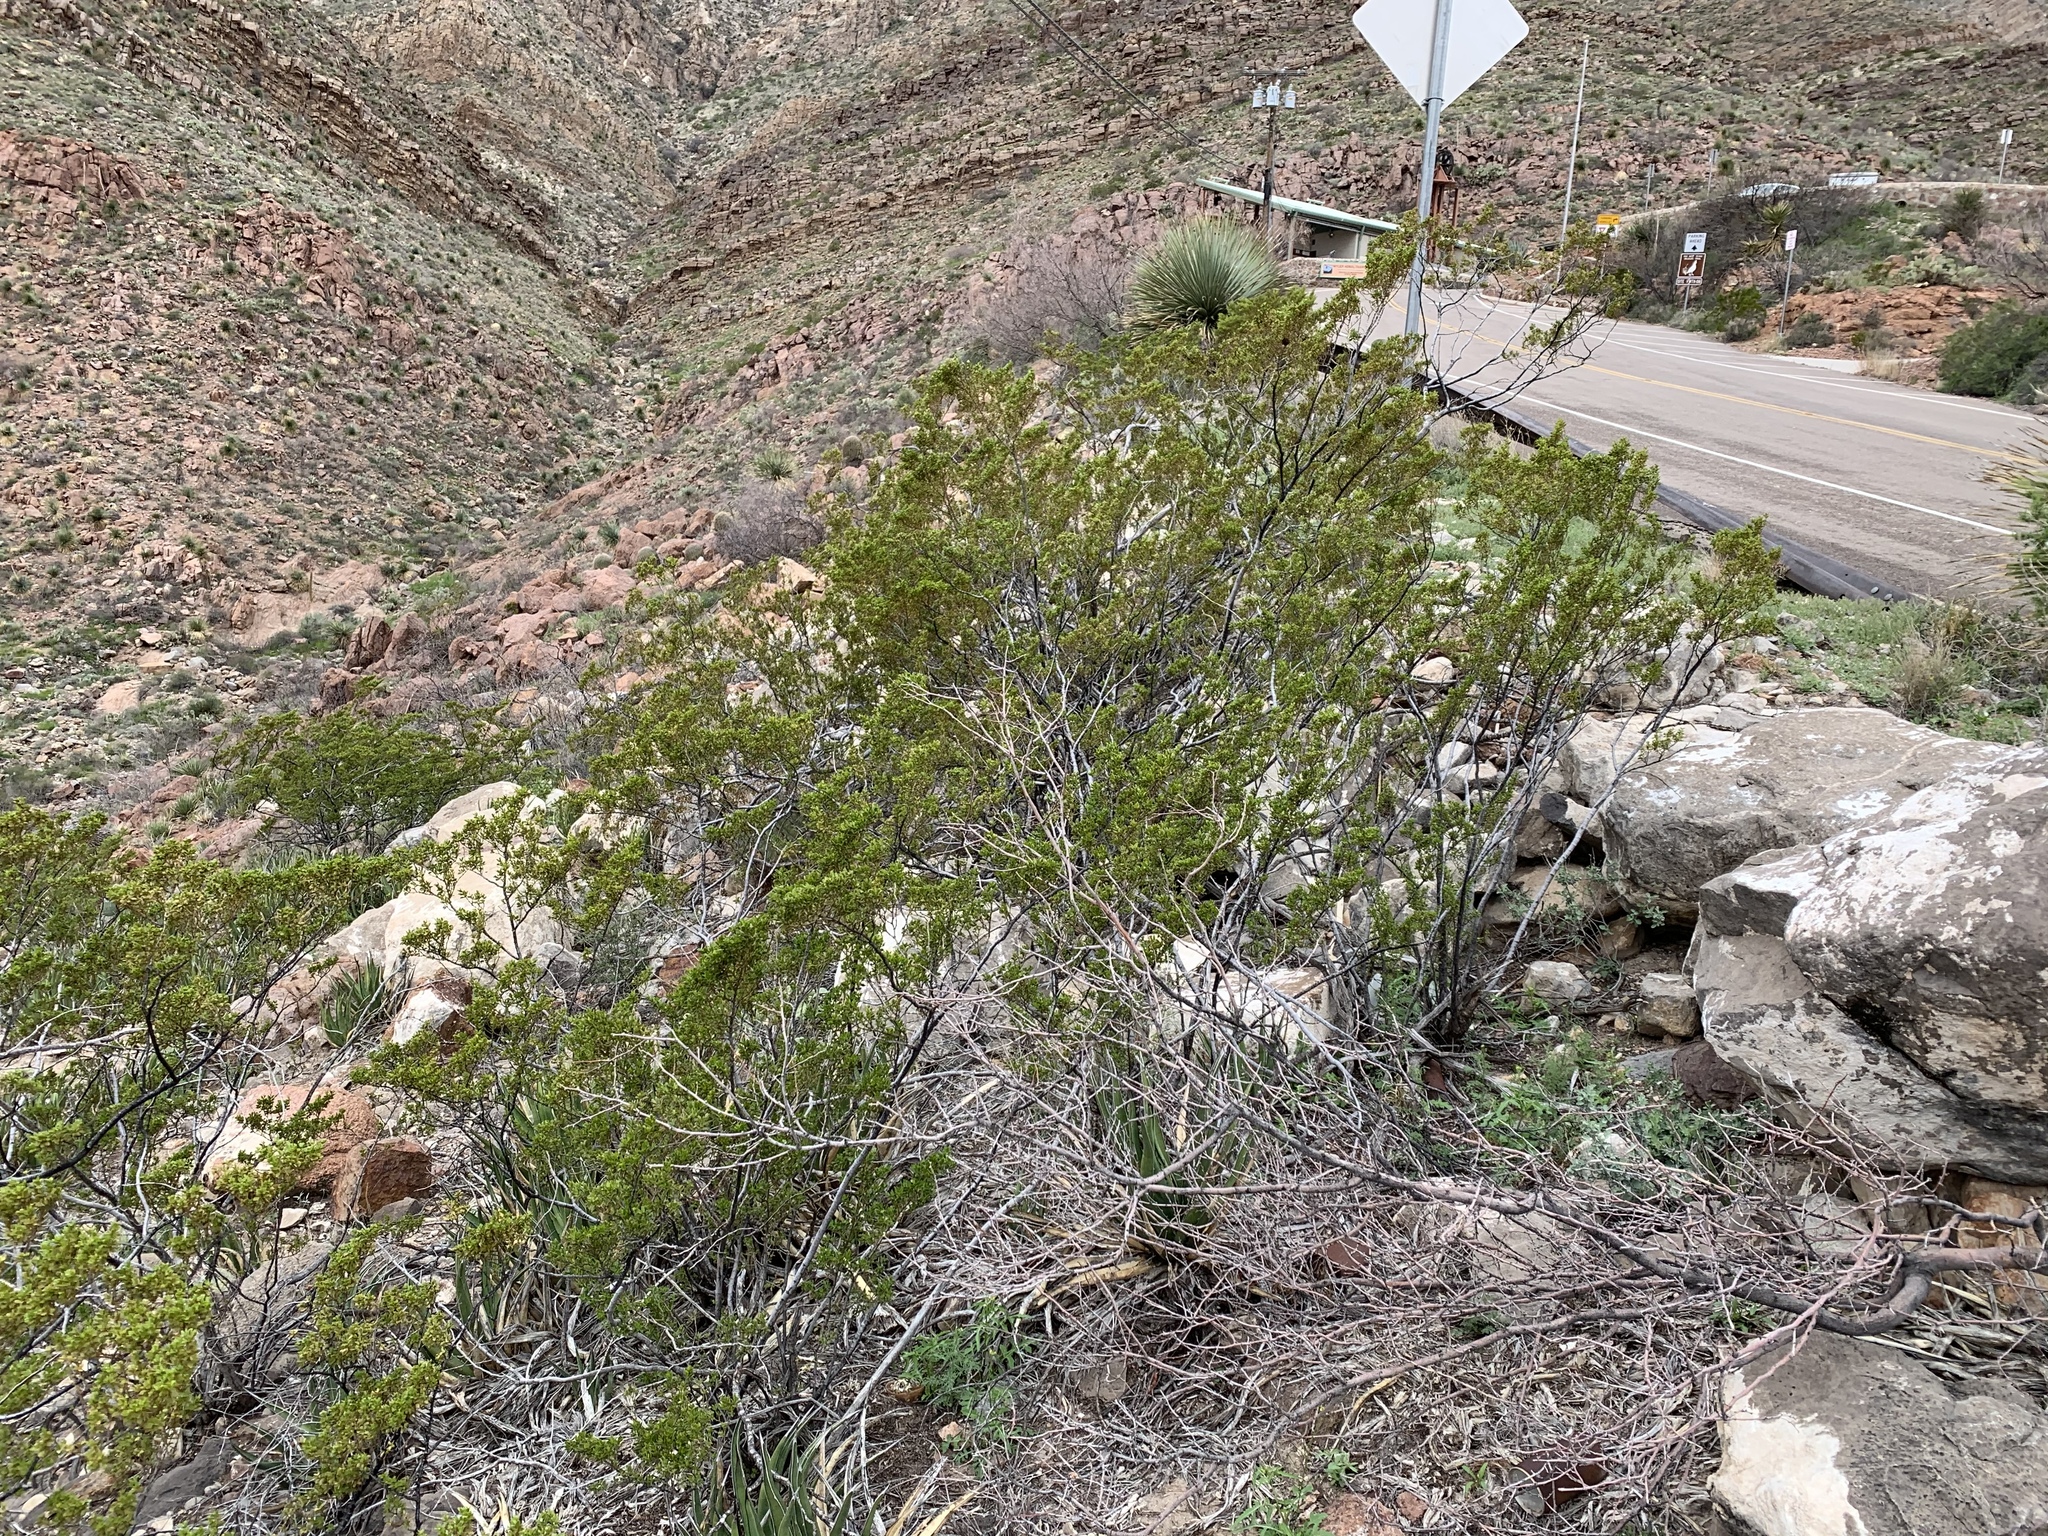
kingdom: Plantae
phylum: Tracheophyta
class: Magnoliopsida
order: Zygophyllales
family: Zygophyllaceae
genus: Larrea
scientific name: Larrea tridentata
